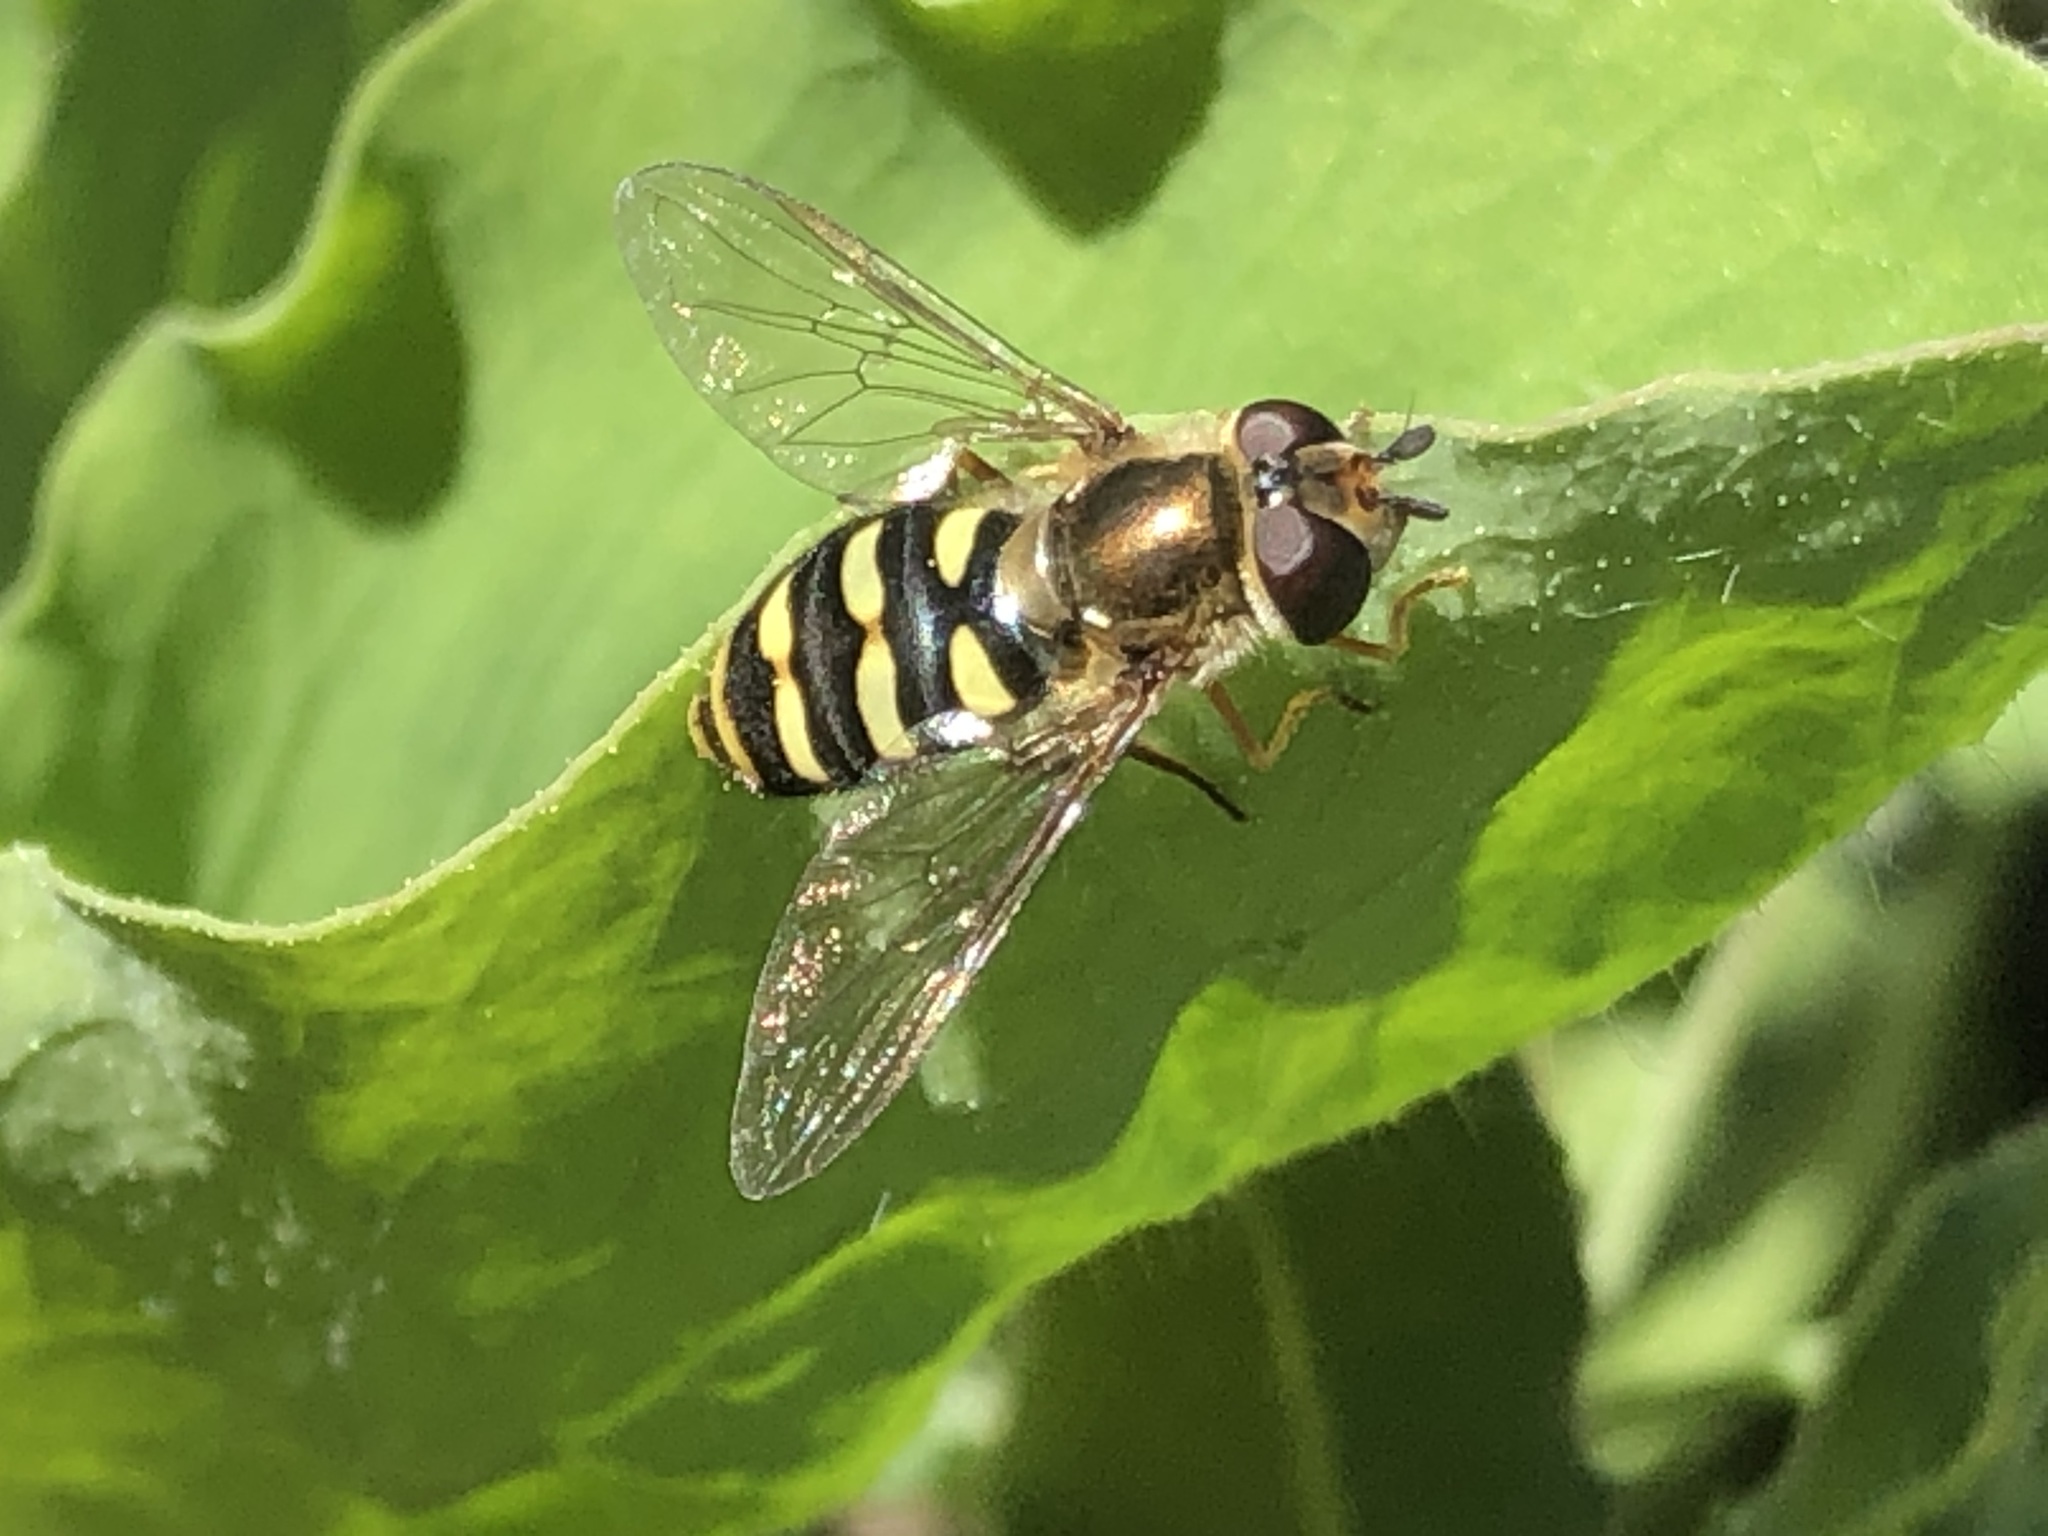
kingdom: Animalia
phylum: Arthropoda
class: Insecta
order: Diptera
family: Syrphidae
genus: Eupeodes
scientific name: Eupeodes fumipennis
